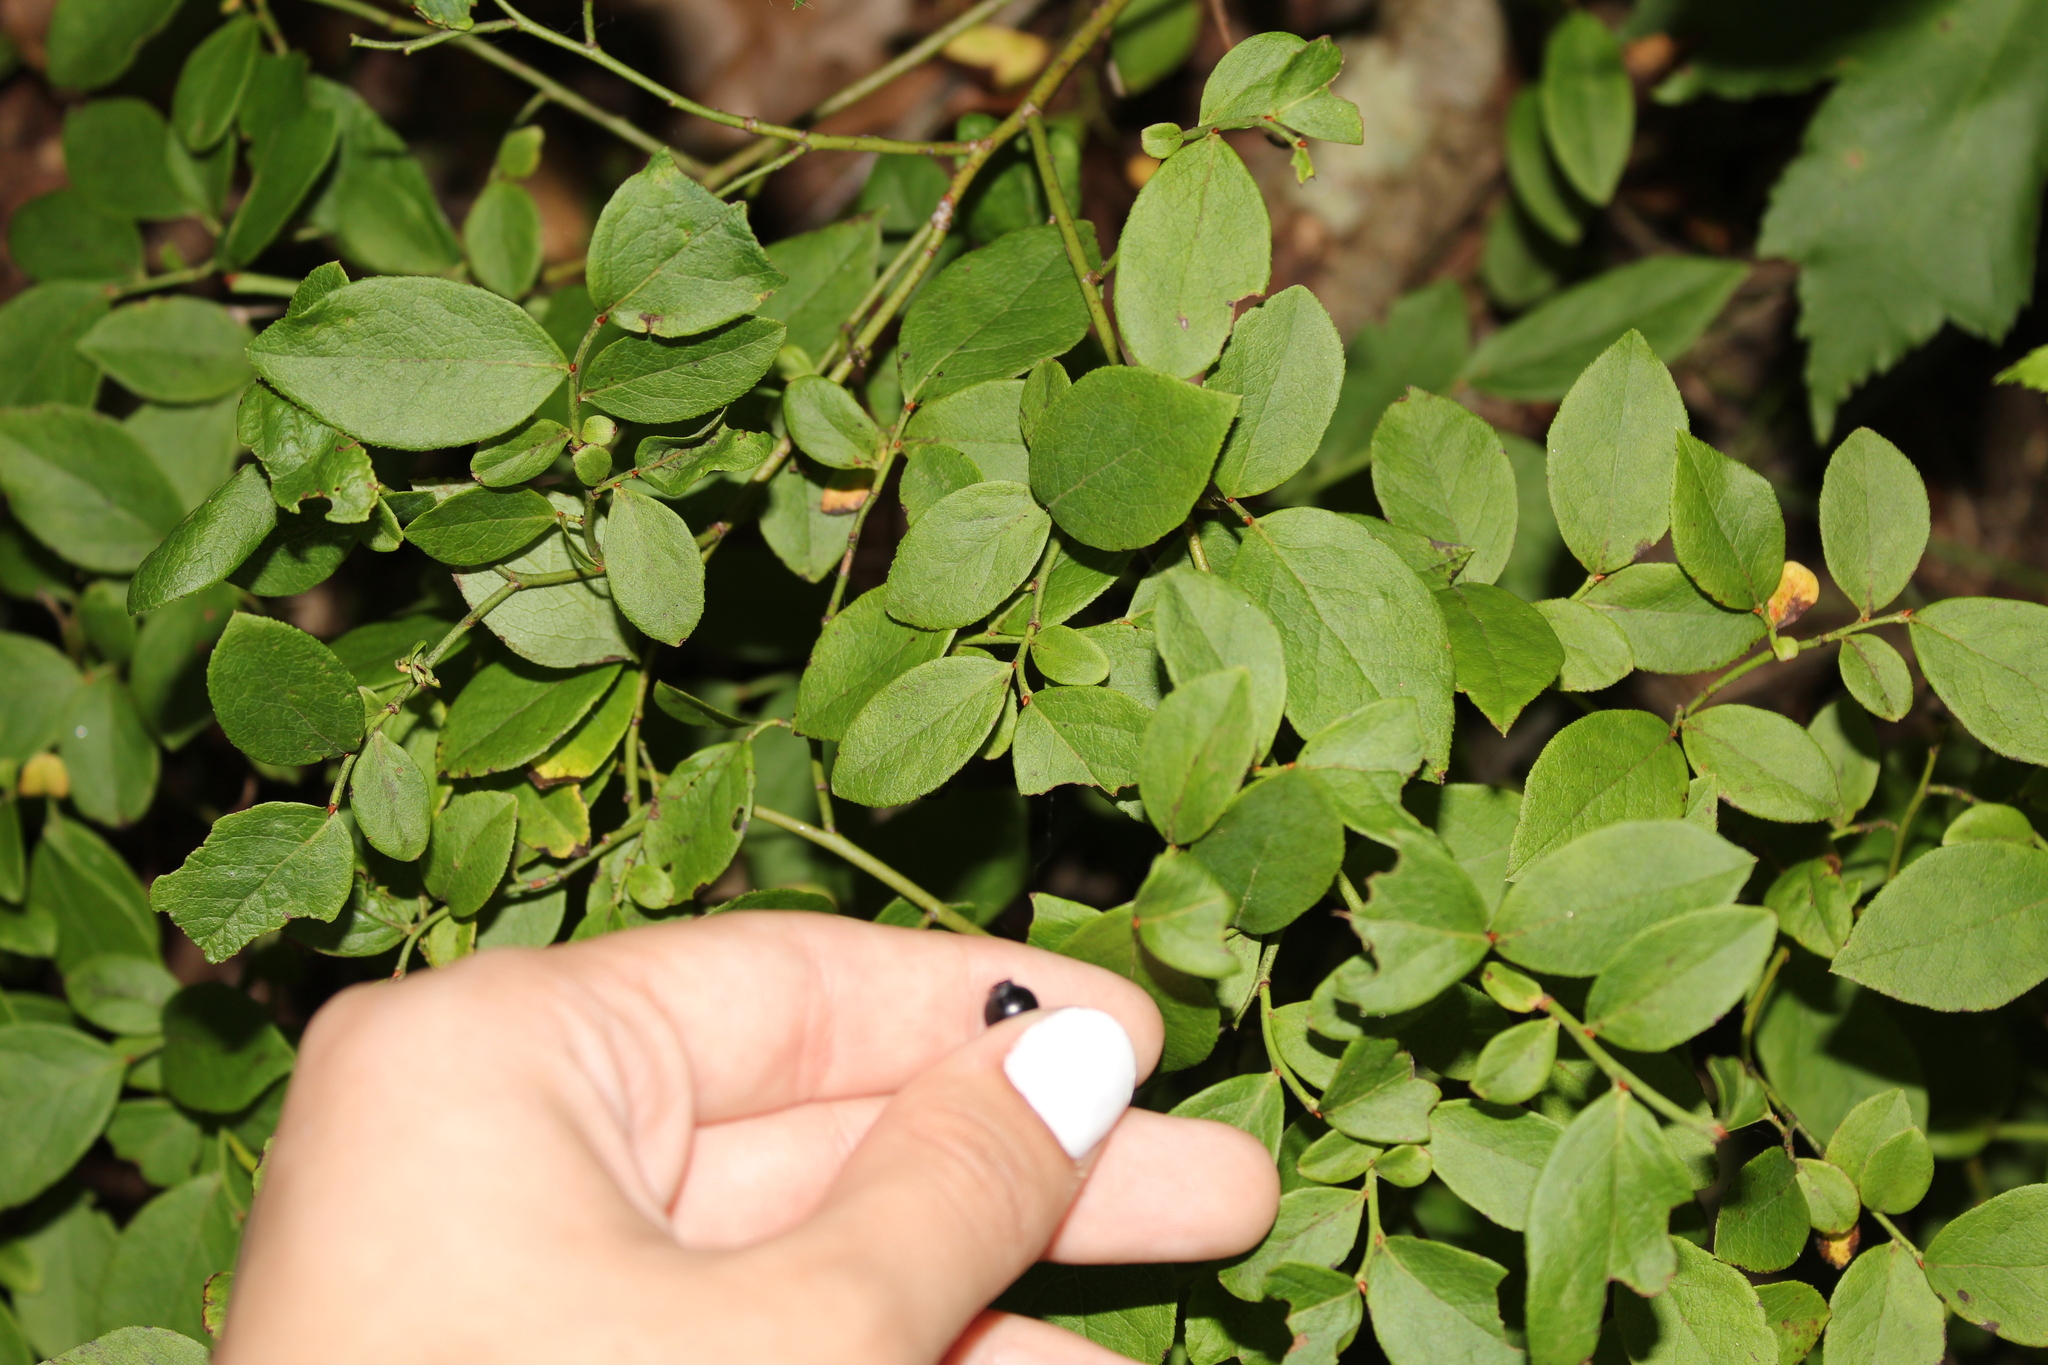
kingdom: Plantae
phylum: Tracheophyta
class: Magnoliopsida
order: Ericales
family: Ericaceae
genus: Vaccinium
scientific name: Vaccinium pallidum
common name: Blue ridge blueberry
